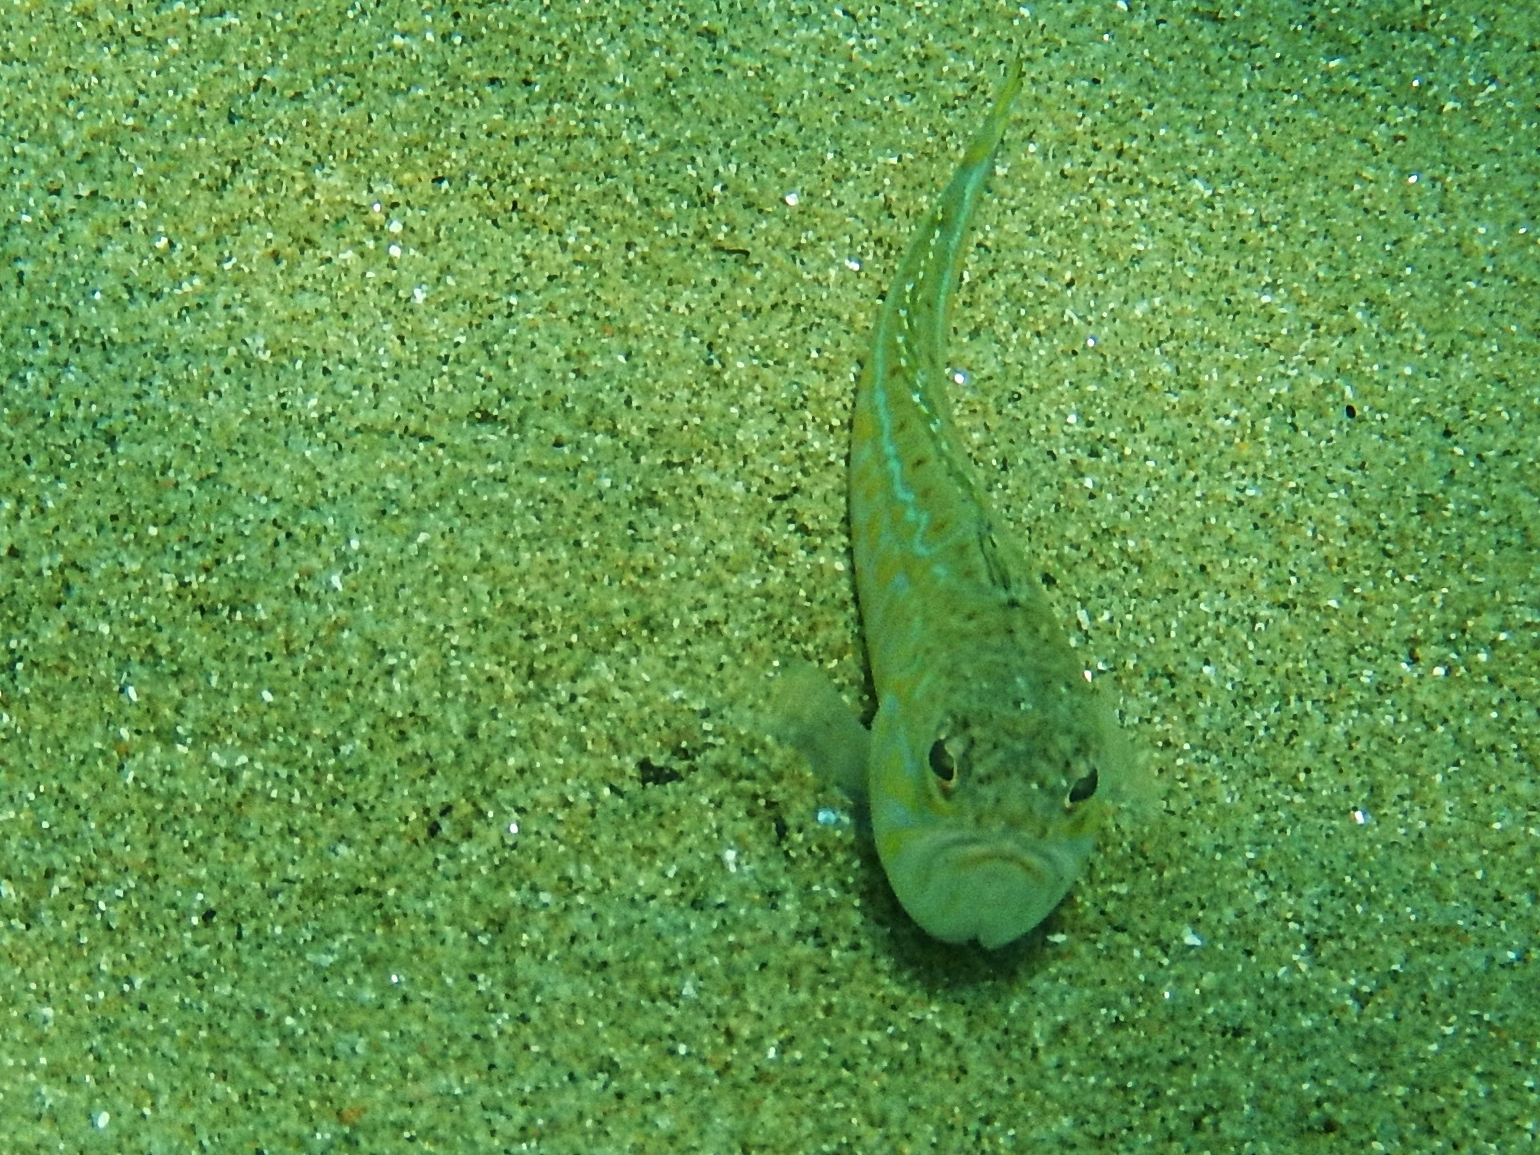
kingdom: Animalia
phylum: Chordata
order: Perciformes
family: Trachinidae
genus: Trachinus
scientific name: Trachinus draco
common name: Greater weever
